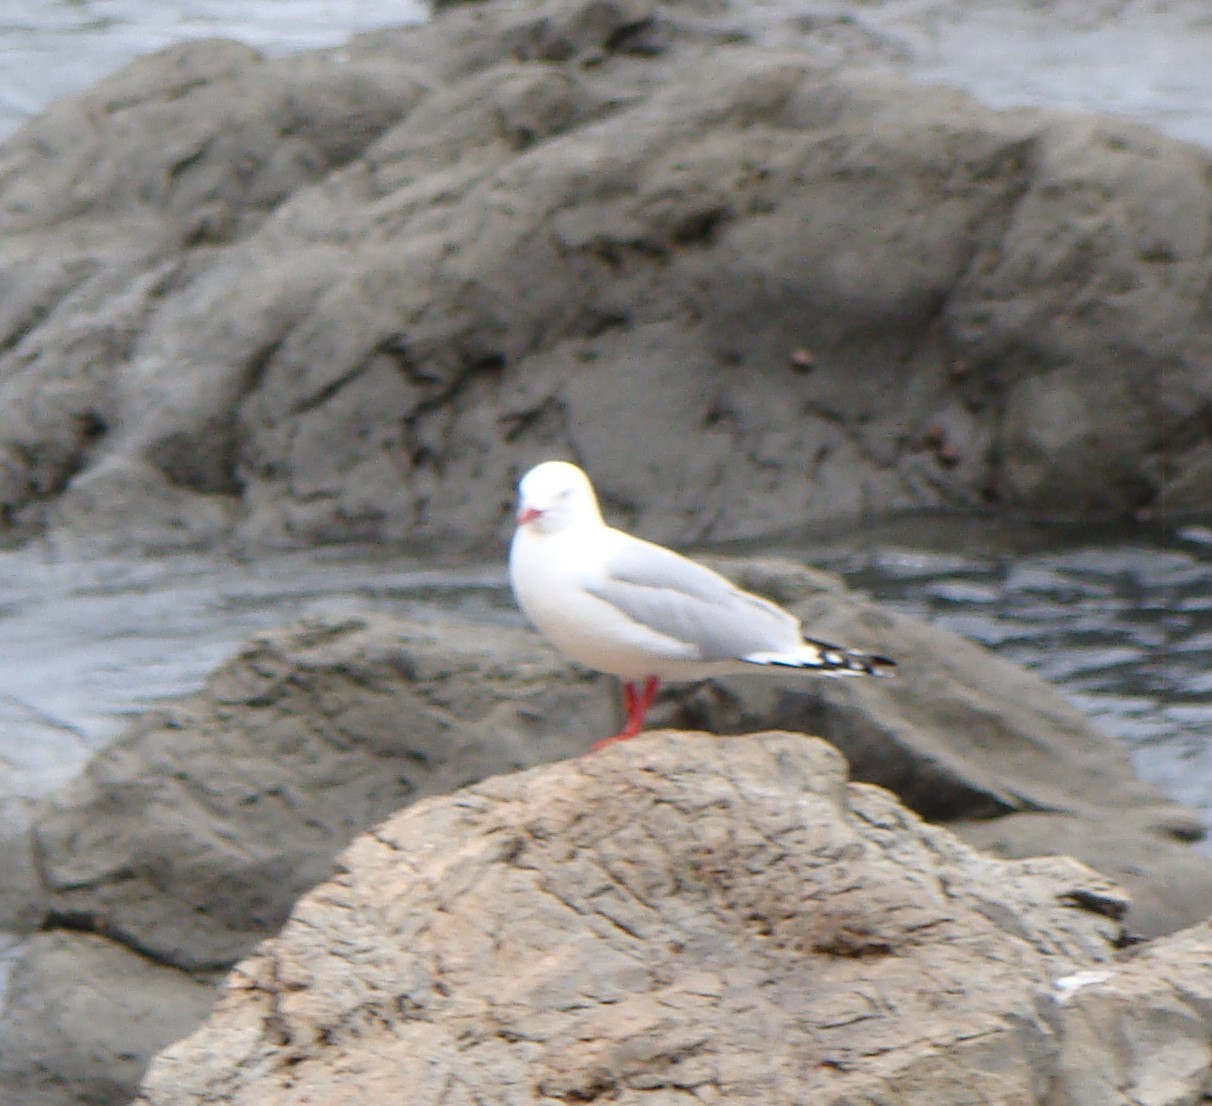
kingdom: Animalia
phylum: Chordata
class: Aves
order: Charadriiformes
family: Laridae
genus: Chroicocephalus
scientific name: Chroicocephalus novaehollandiae
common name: Silver gull
